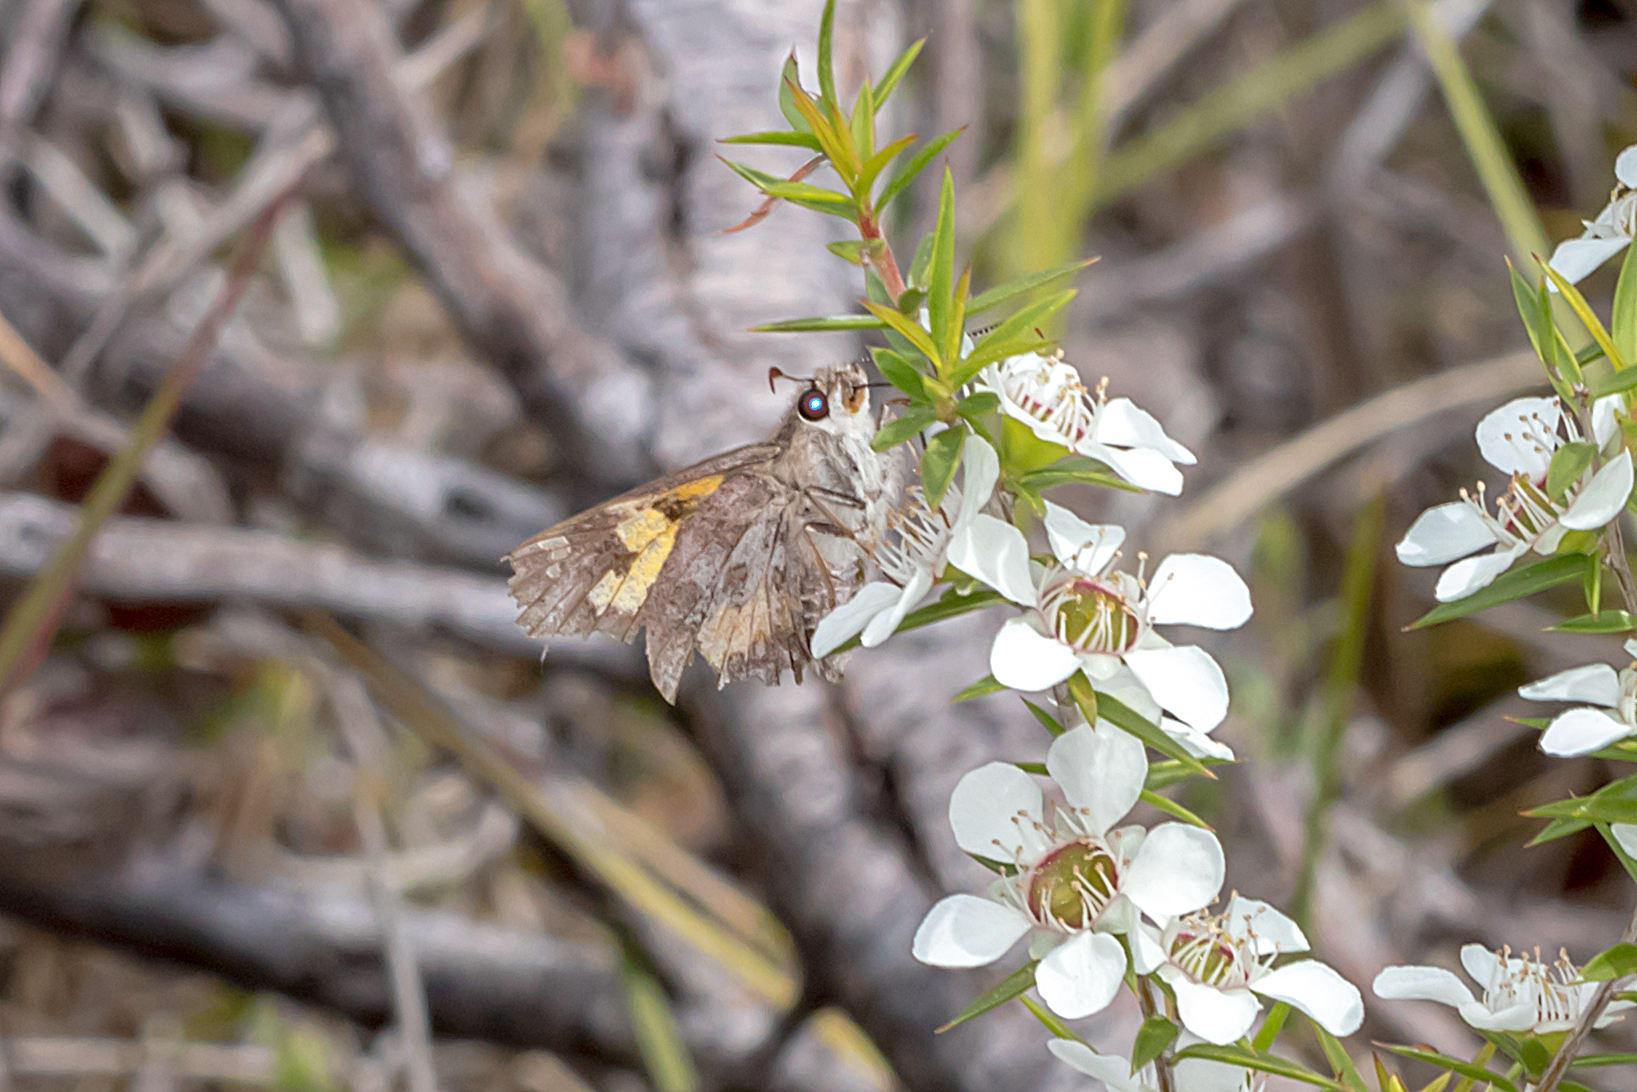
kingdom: Animalia
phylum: Arthropoda
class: Insecta
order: Lepidoptera
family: Hesperiidae
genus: Trapezites
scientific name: Trapezites phigalioides
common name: Montane ochre
